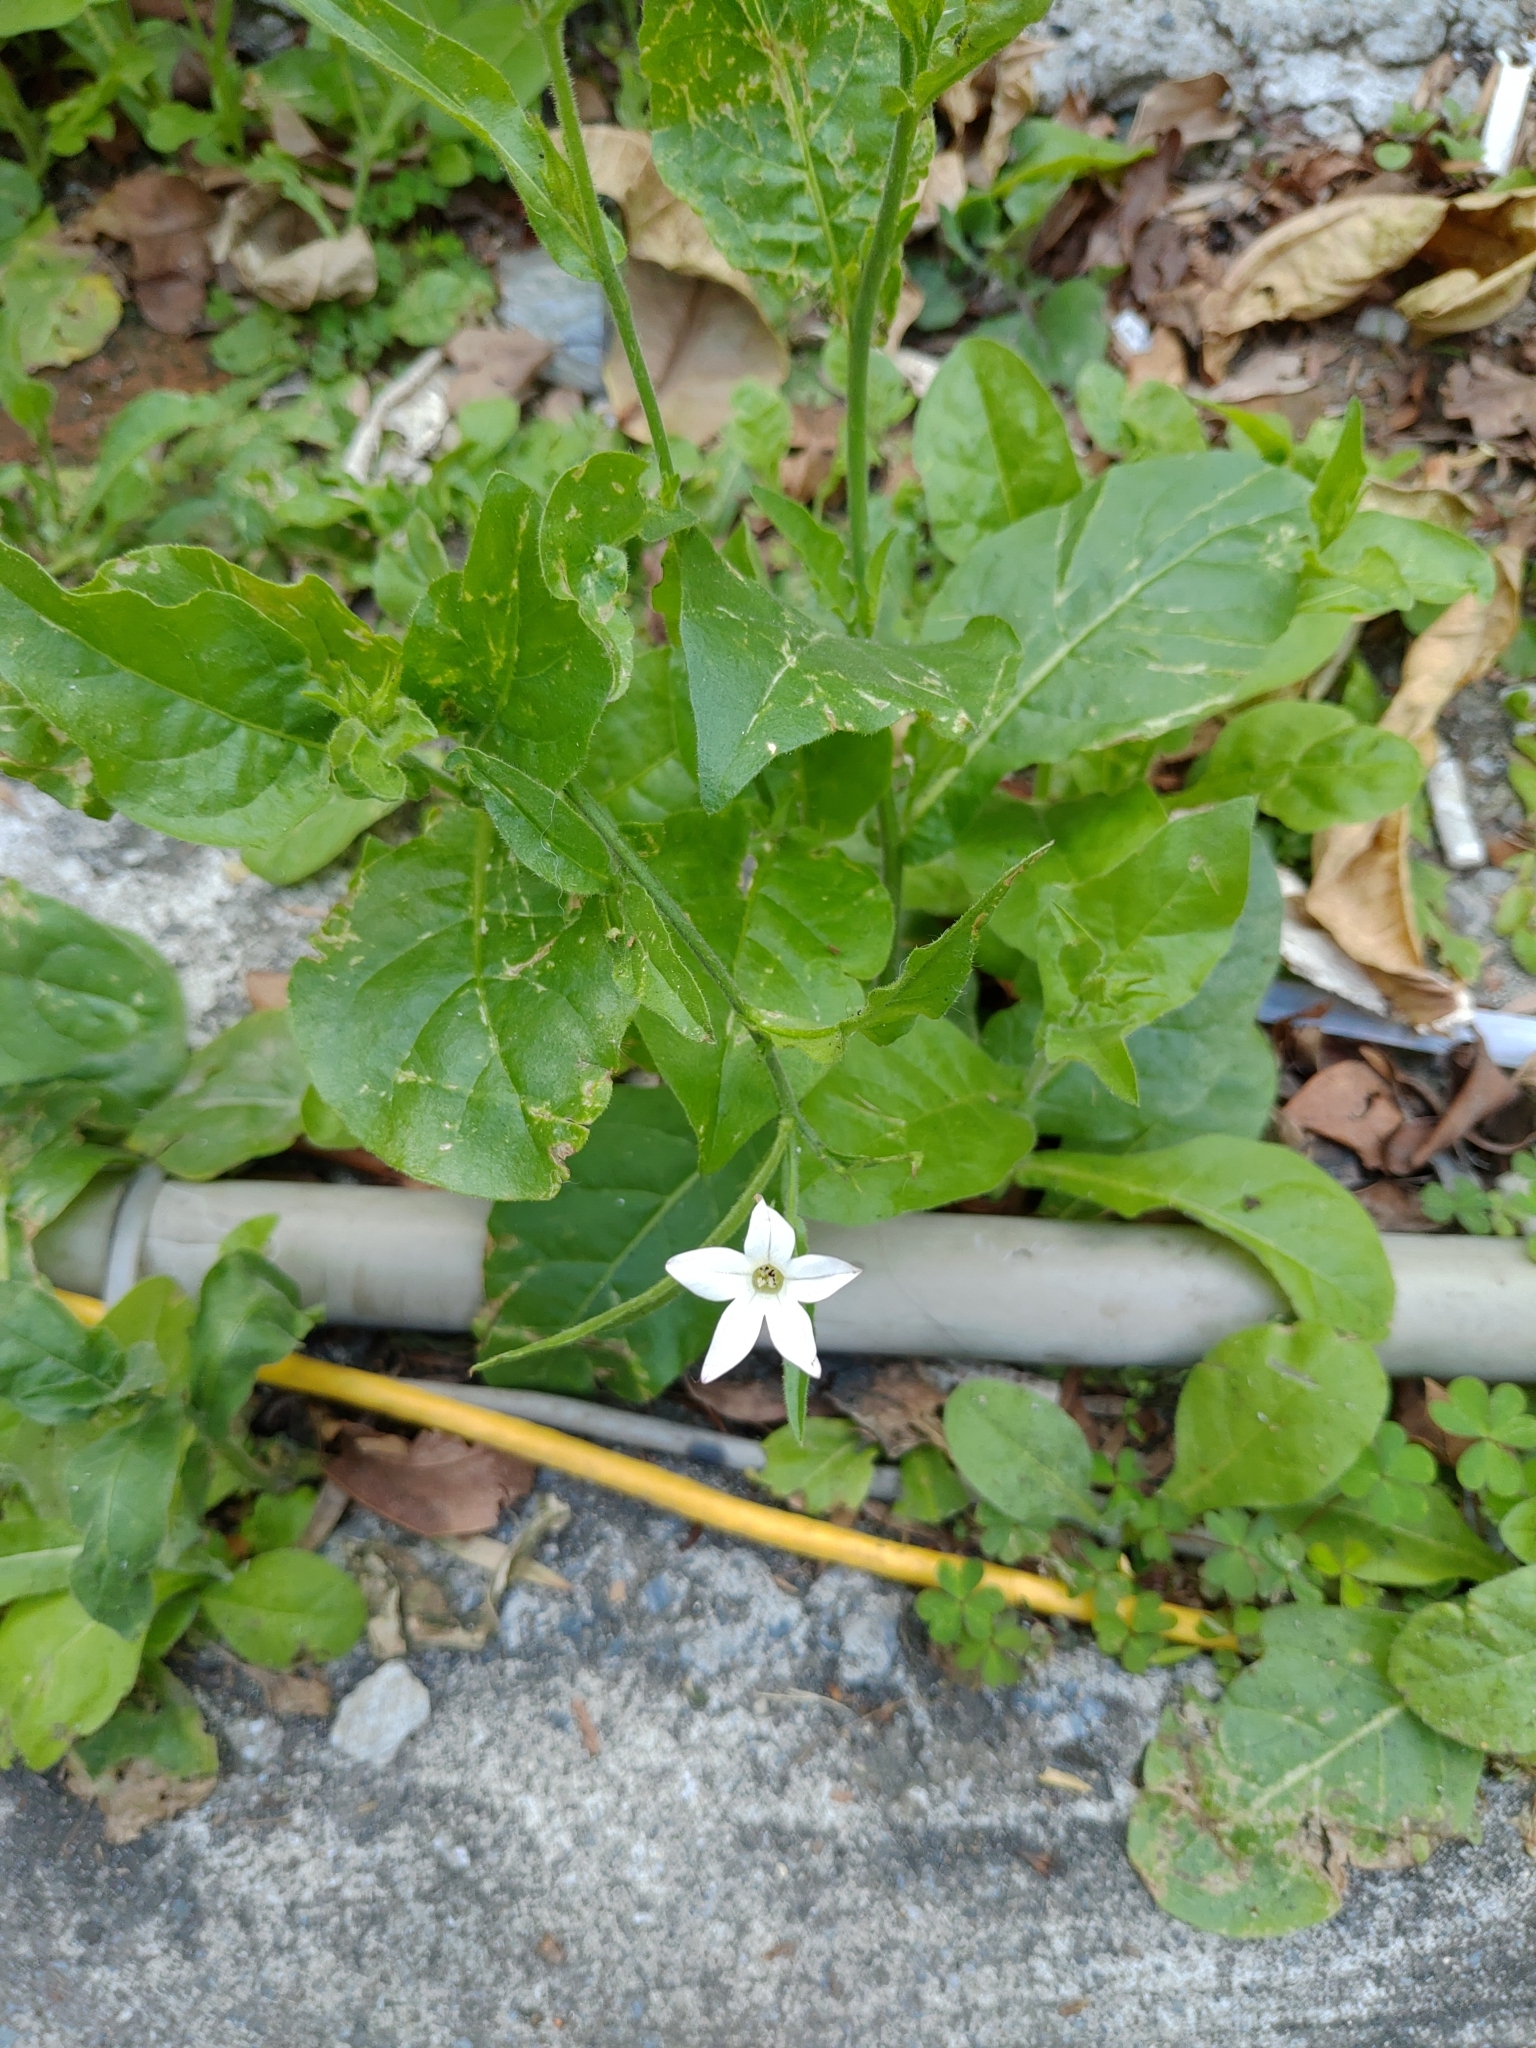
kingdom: Plantae
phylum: Tracheophyta
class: Magnoliopsida
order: Solanales
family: Solanaceae
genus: Nicotiana
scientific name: Nicotiana plumbaginifolia
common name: Tex-mex tobacco
